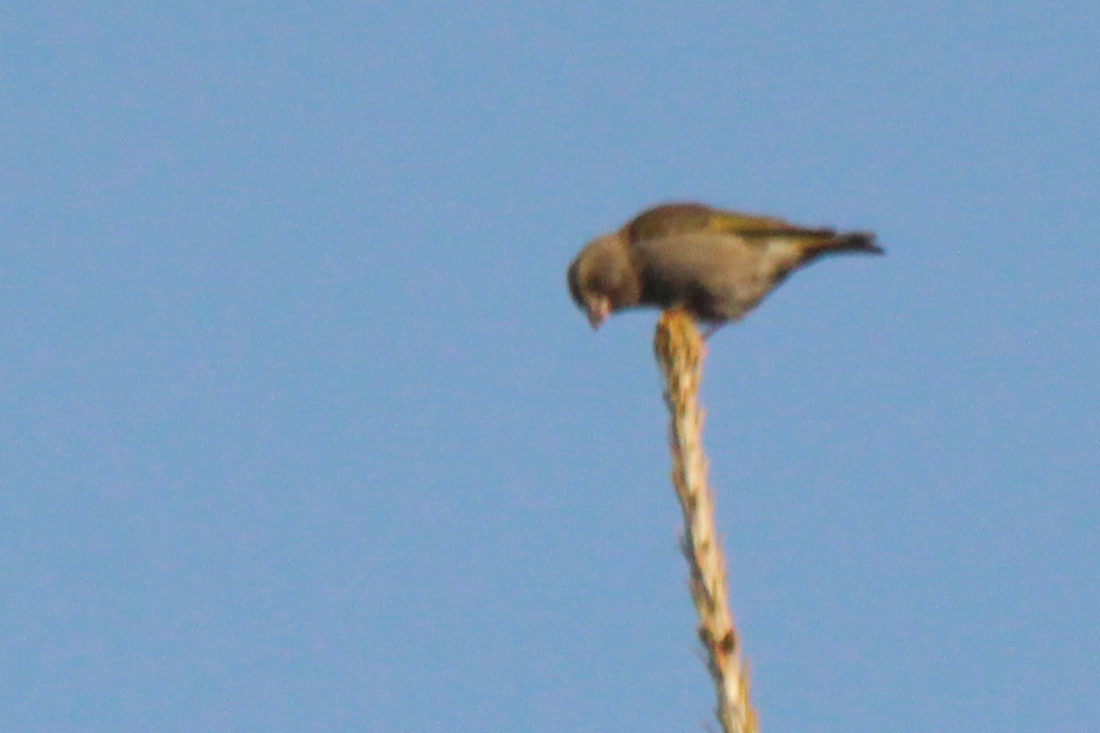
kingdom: Plantae
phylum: Tracheophyta
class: Liliopsida
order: Poales
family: Poaceae
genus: Chloris
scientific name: Chloris chloris
